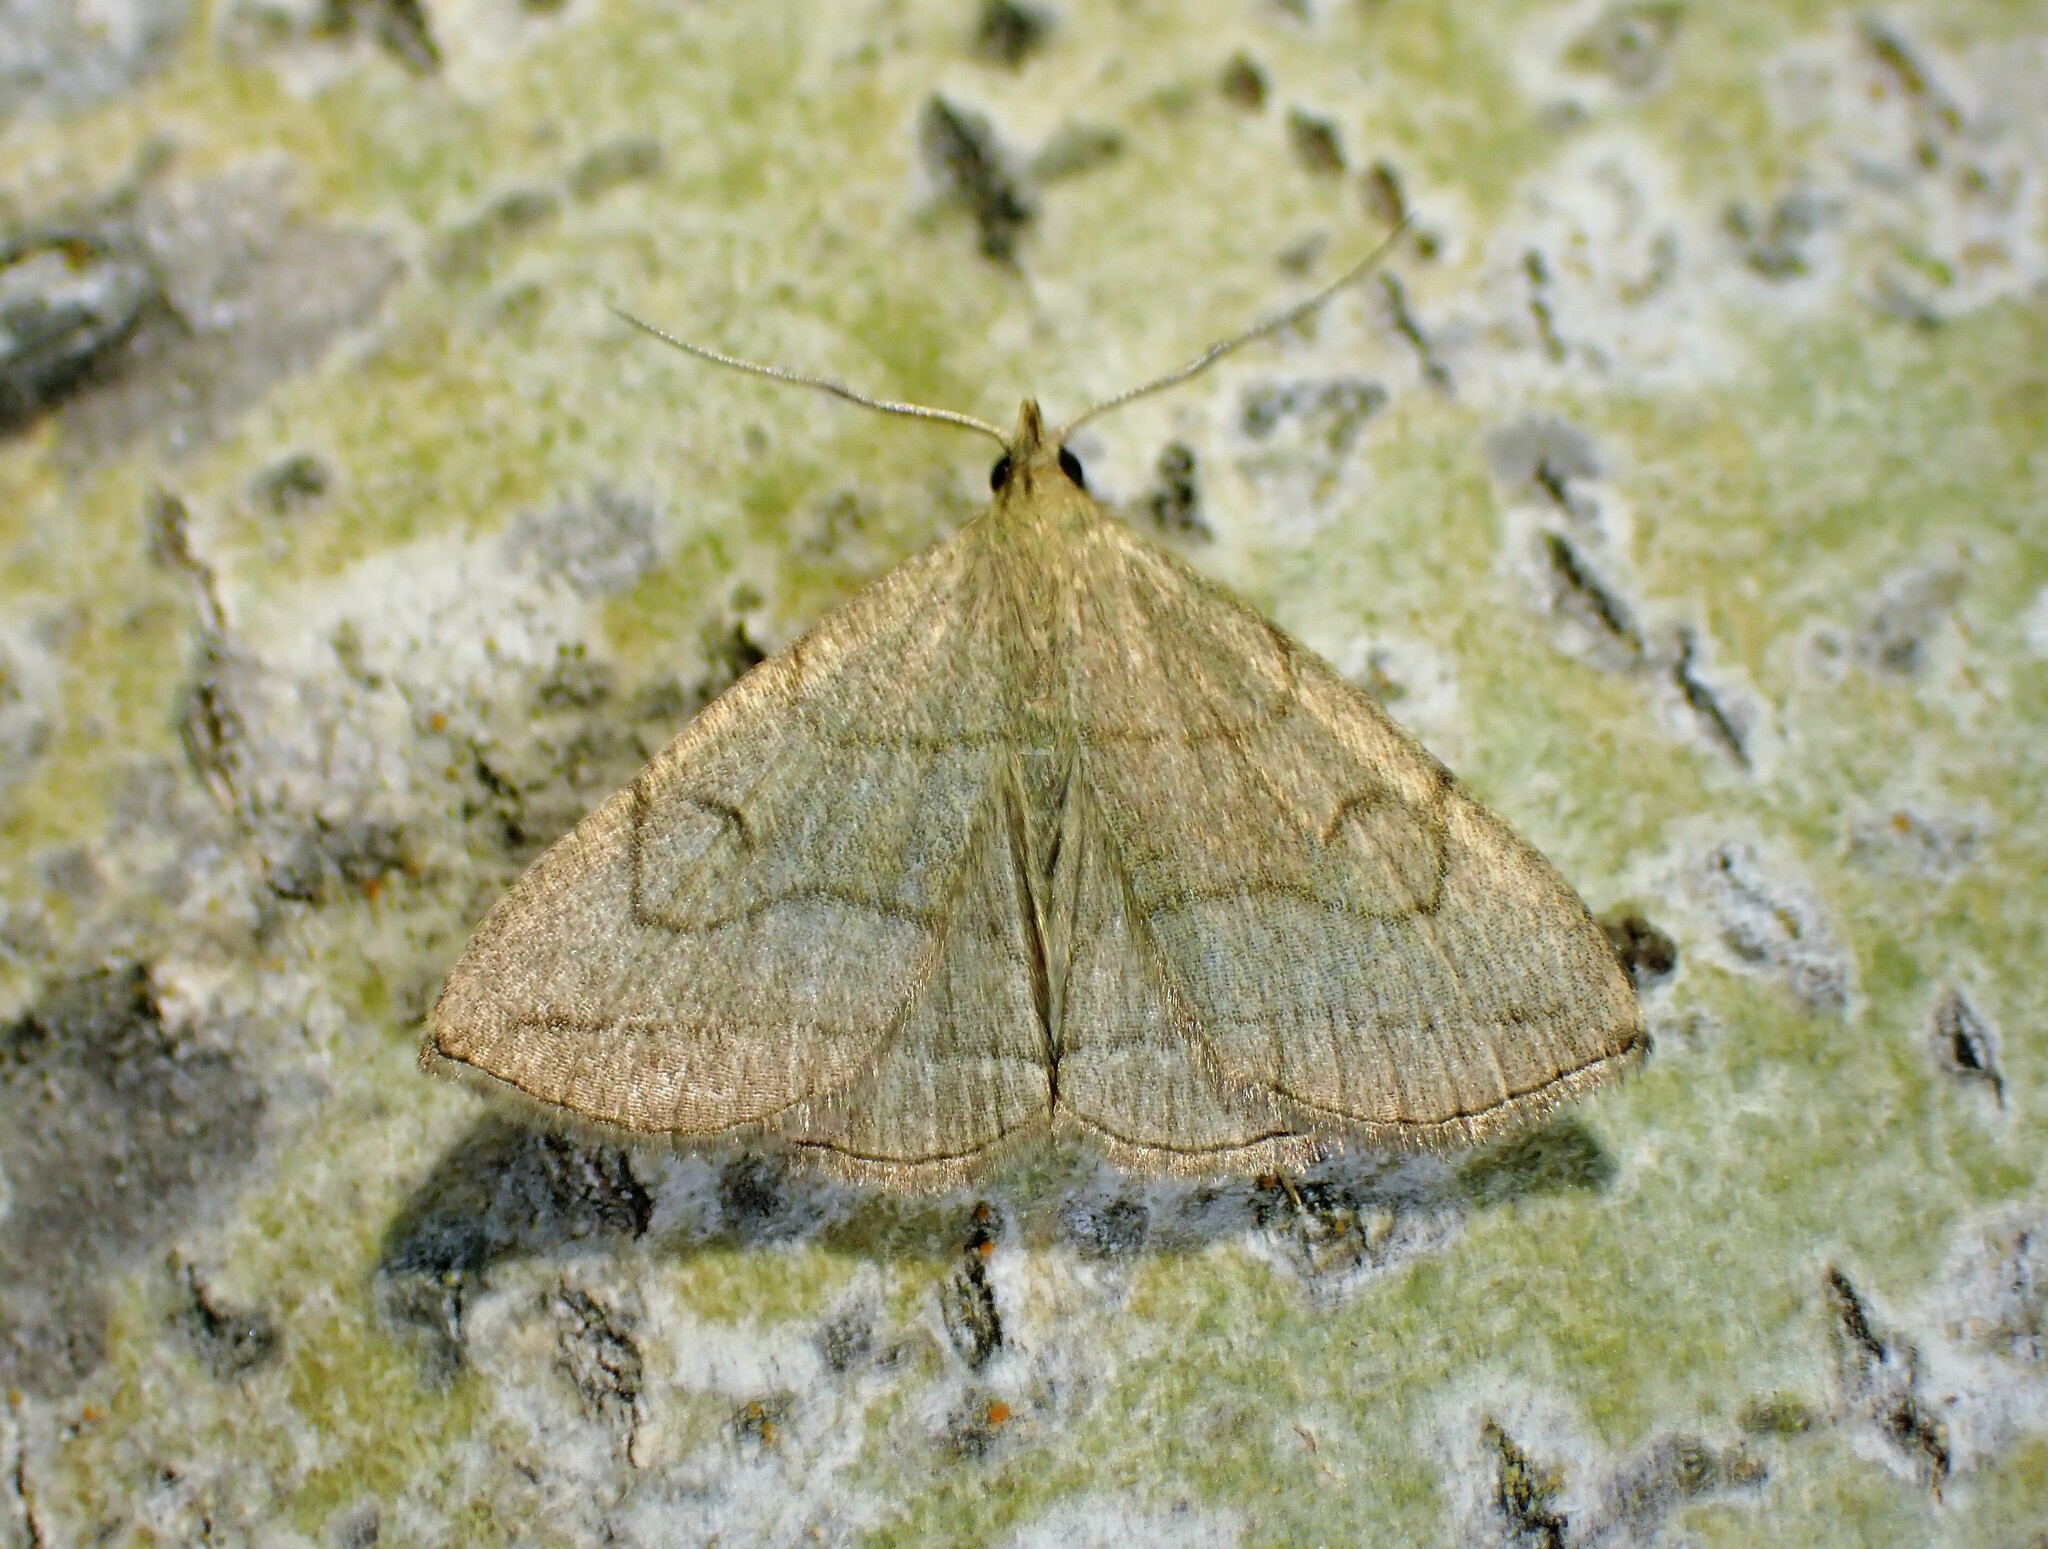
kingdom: Animalia
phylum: Arthropoda
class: Insecta
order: Lepidoptera
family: Erebidae
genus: Zanclognatha
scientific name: Zanclognatha pedipilalis
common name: Grayish fan-foot
